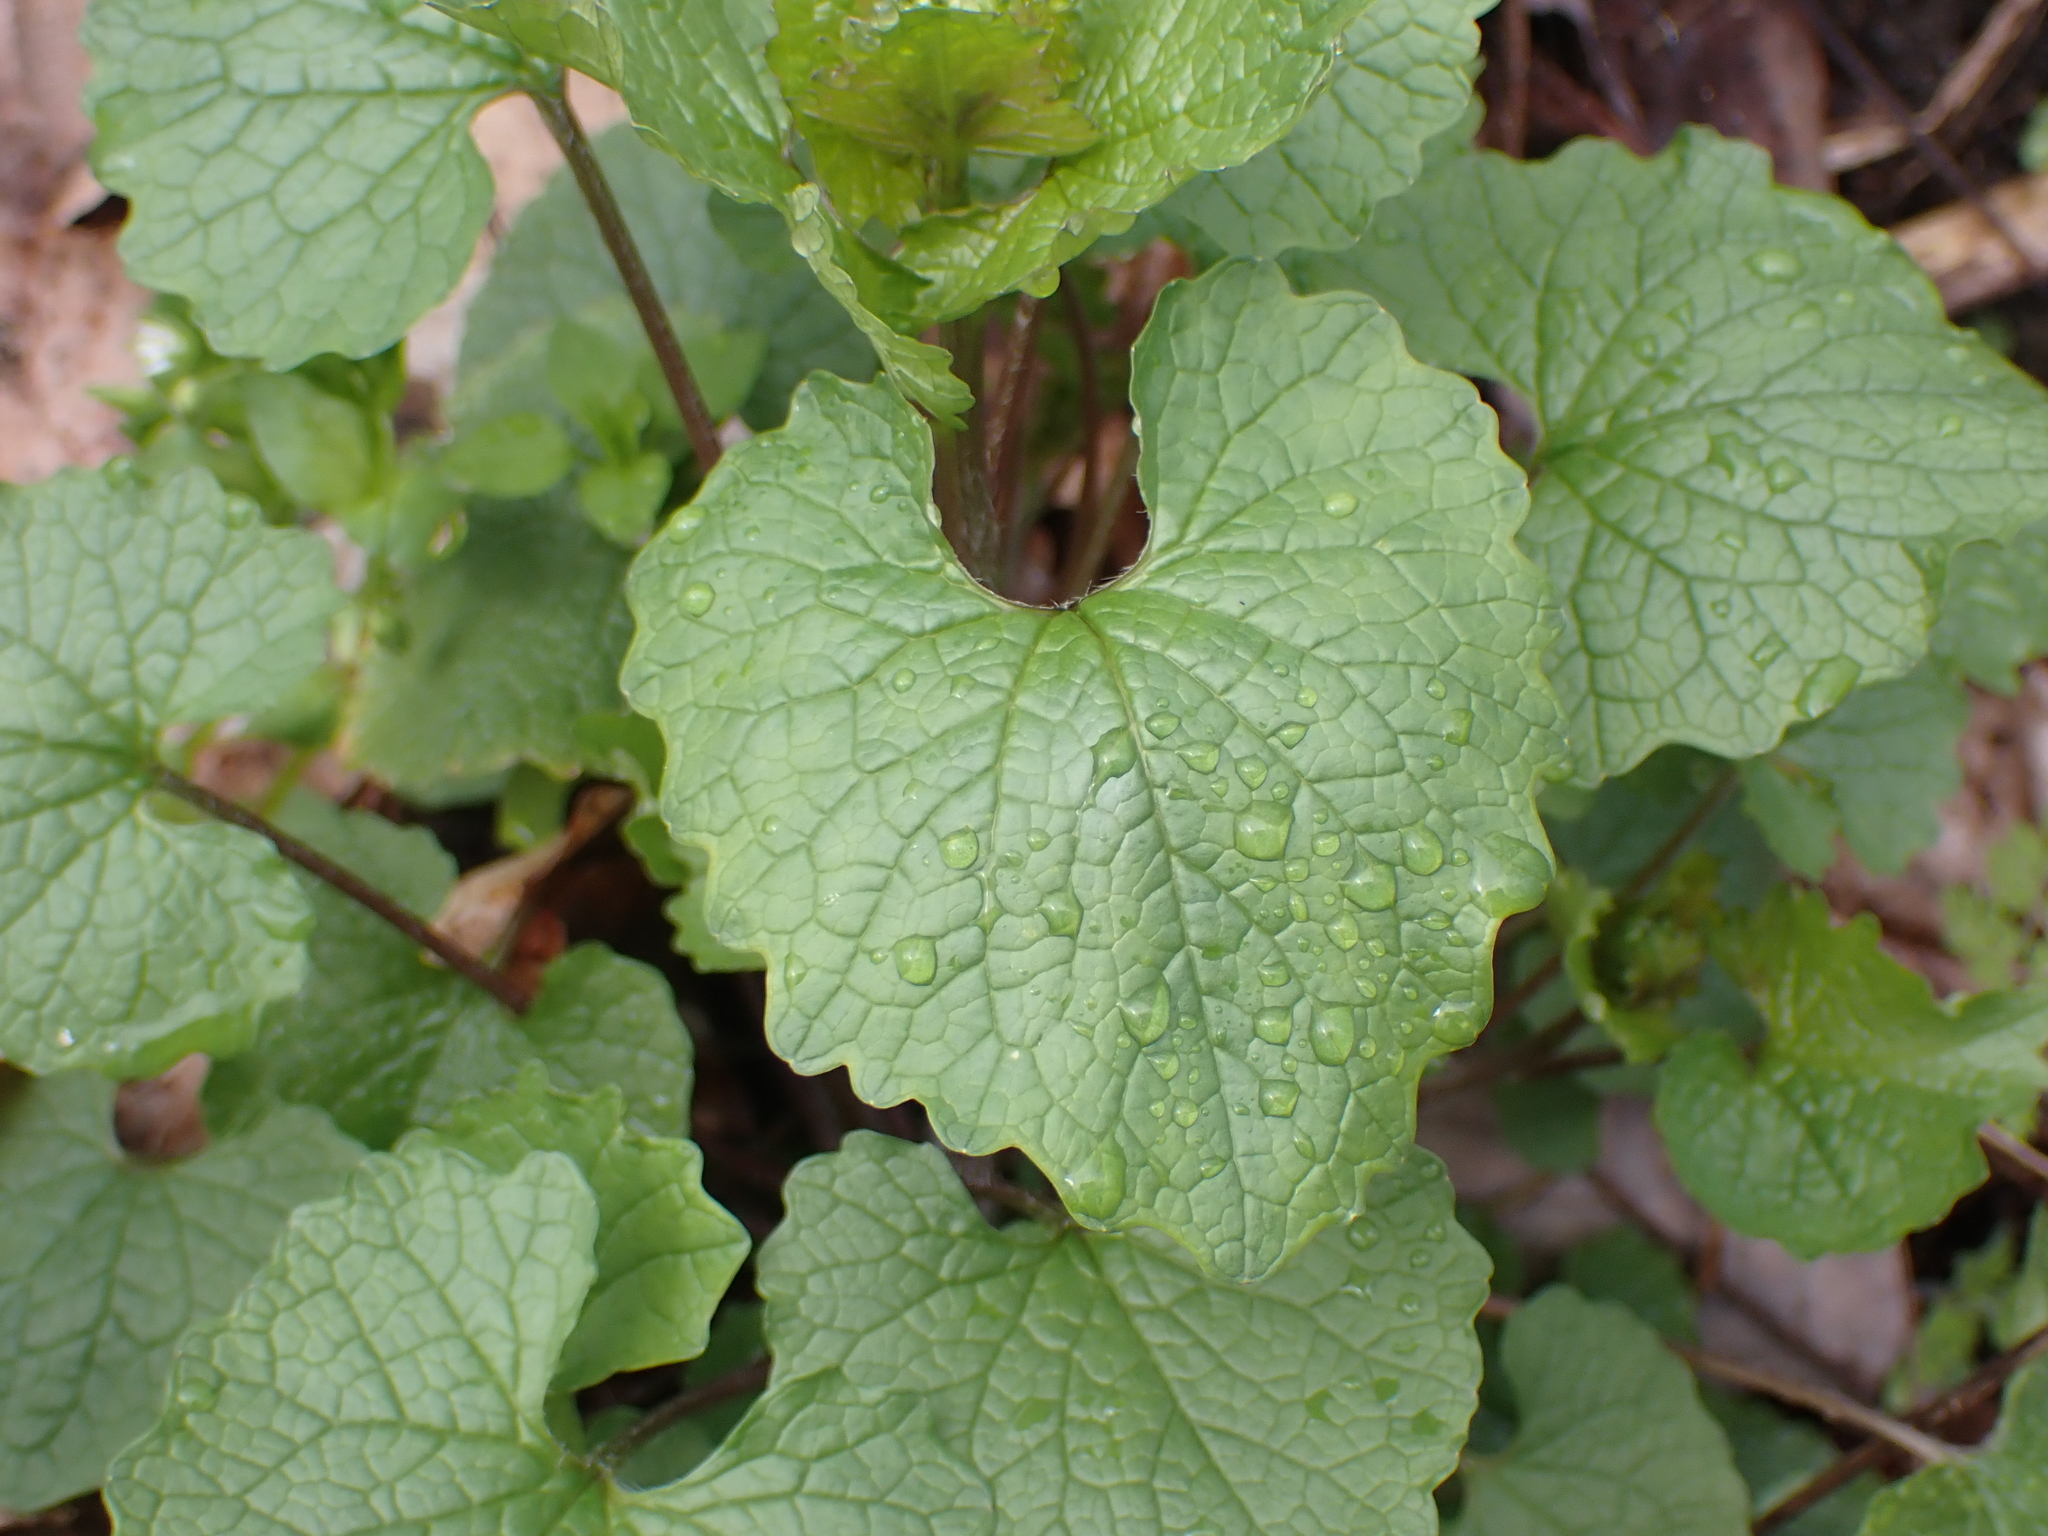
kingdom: Plantae
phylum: Tracheophyta
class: Magnoliopsida
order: Brassicales
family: Brassicaceae
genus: Alliaria
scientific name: Alliaria petiolata
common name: Garlic mustard
